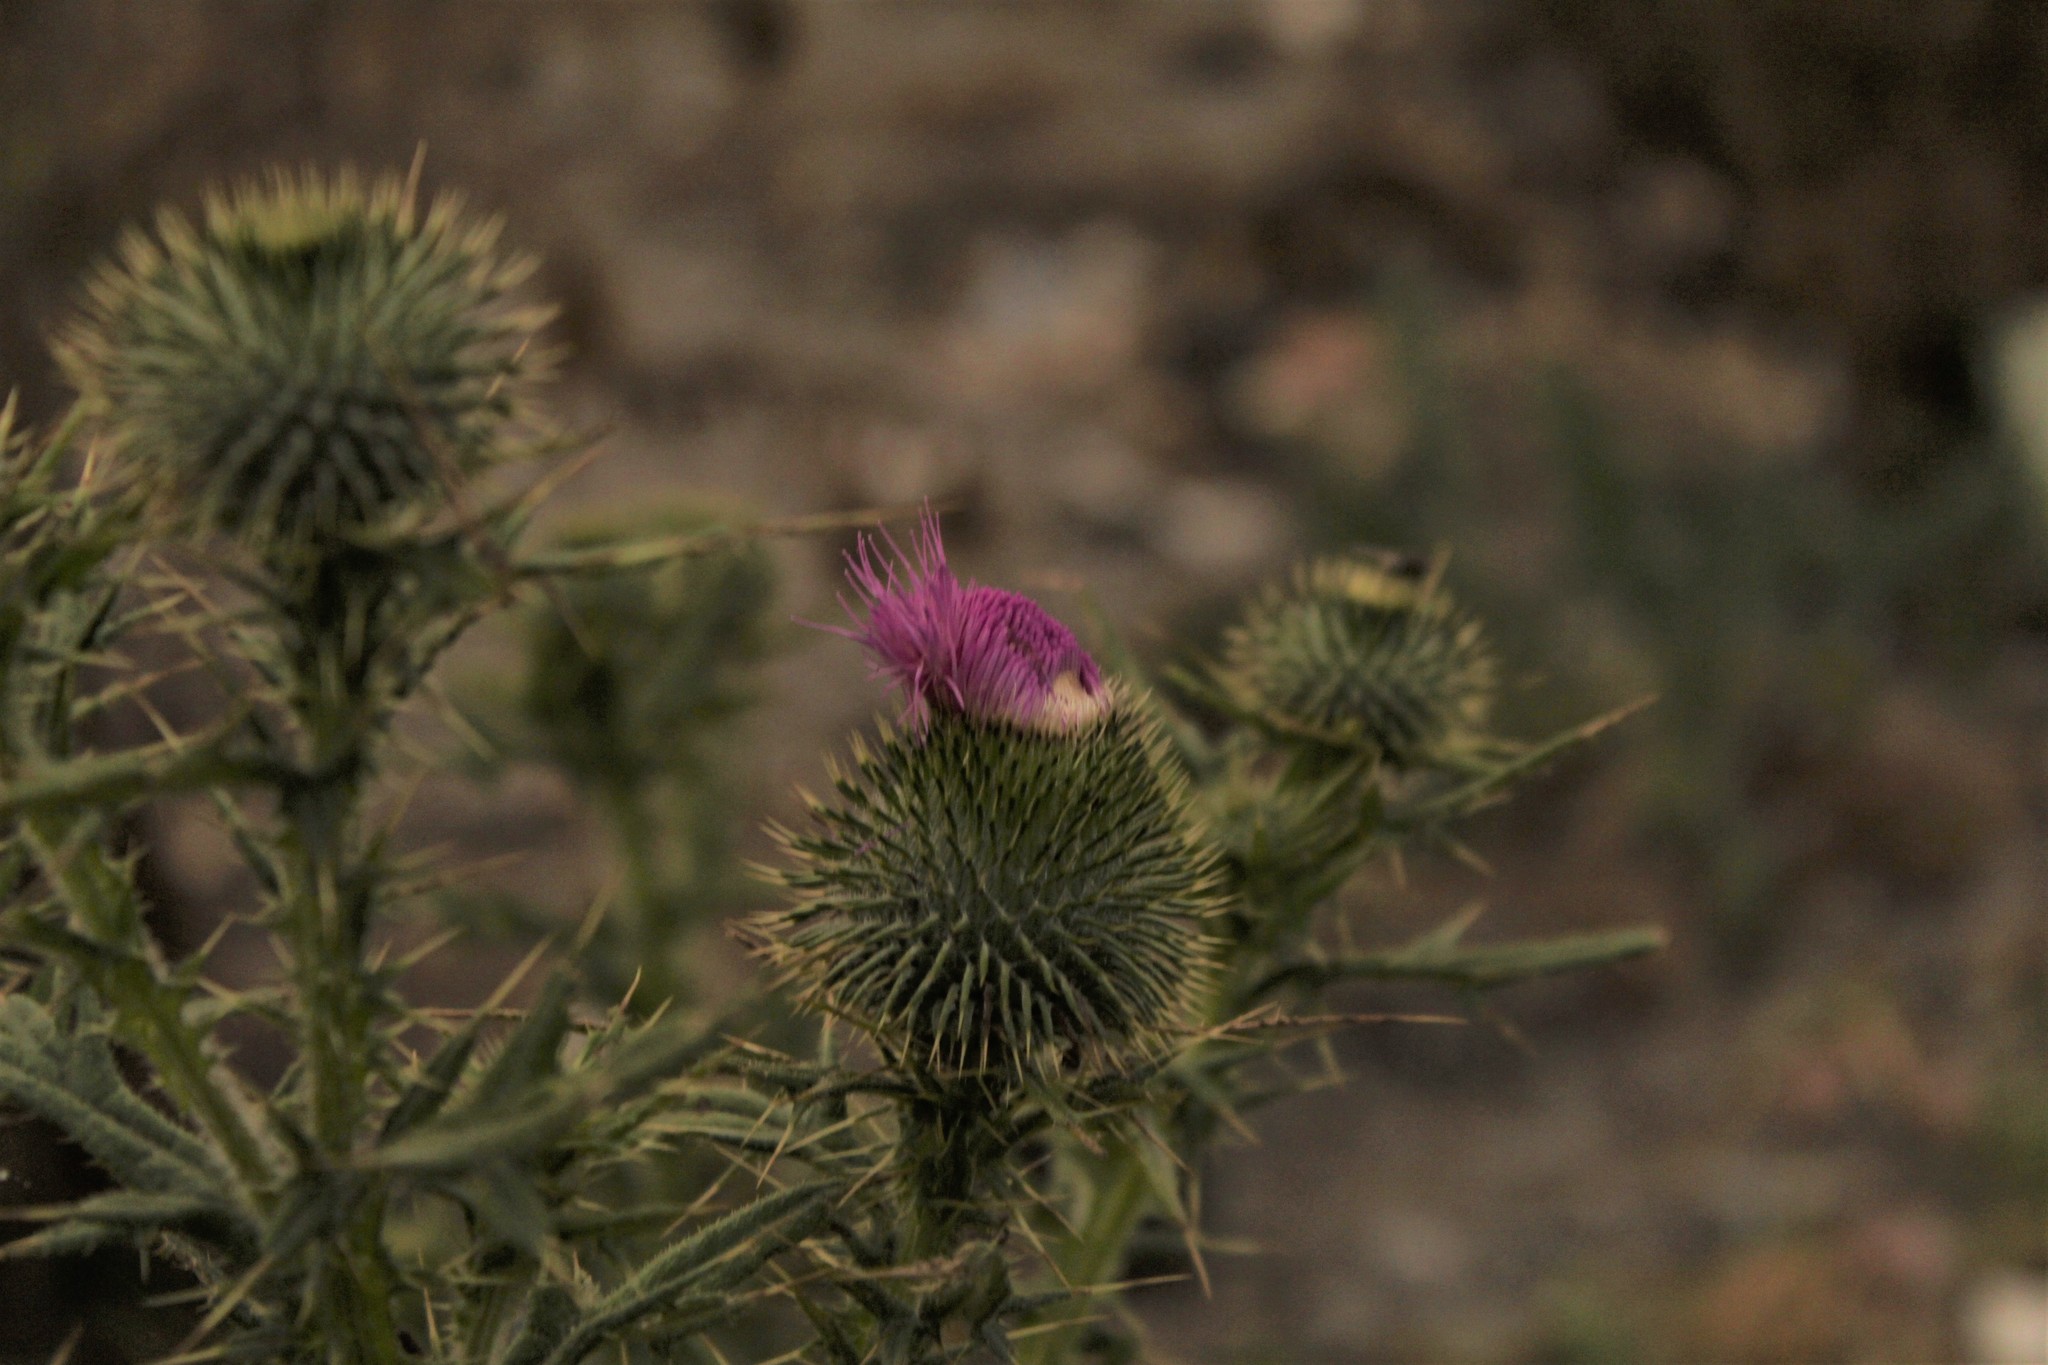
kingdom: Plantae
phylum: Tracheophyta
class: Magnoliopsida
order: Asterales
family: Asteraceae
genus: Cirsium
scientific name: Cirsium vulgare
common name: Bull thistle
